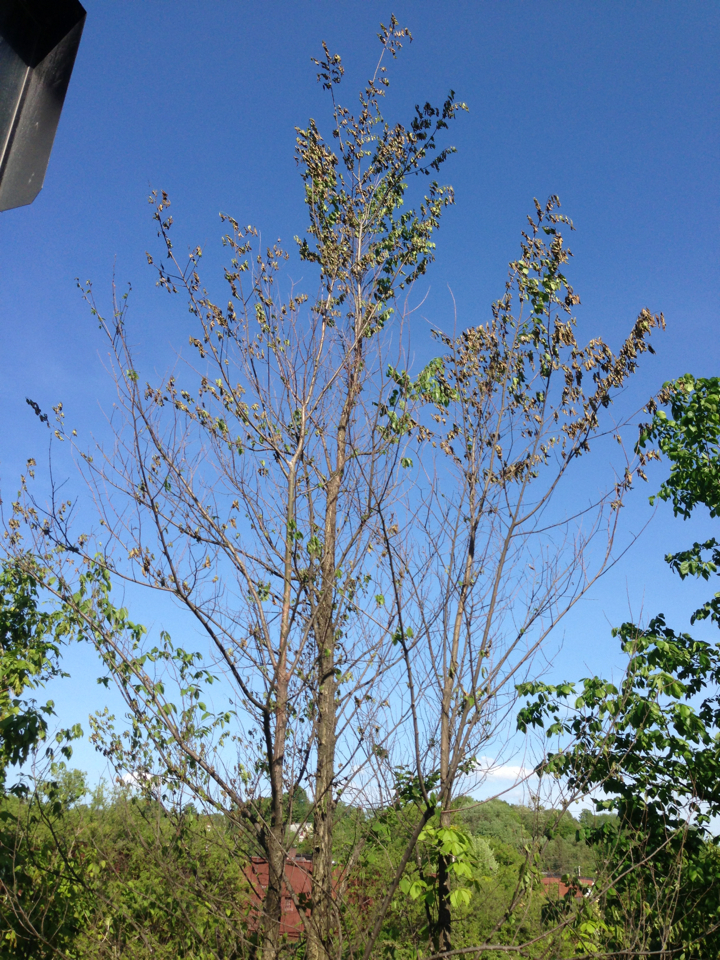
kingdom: Fungi
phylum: Ascomycota
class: Sordariomycetes
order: Microascales
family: Ceratocystidaceae
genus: Ophiostoma
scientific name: Ophiostoma ulmi
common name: Dutch elm disease
